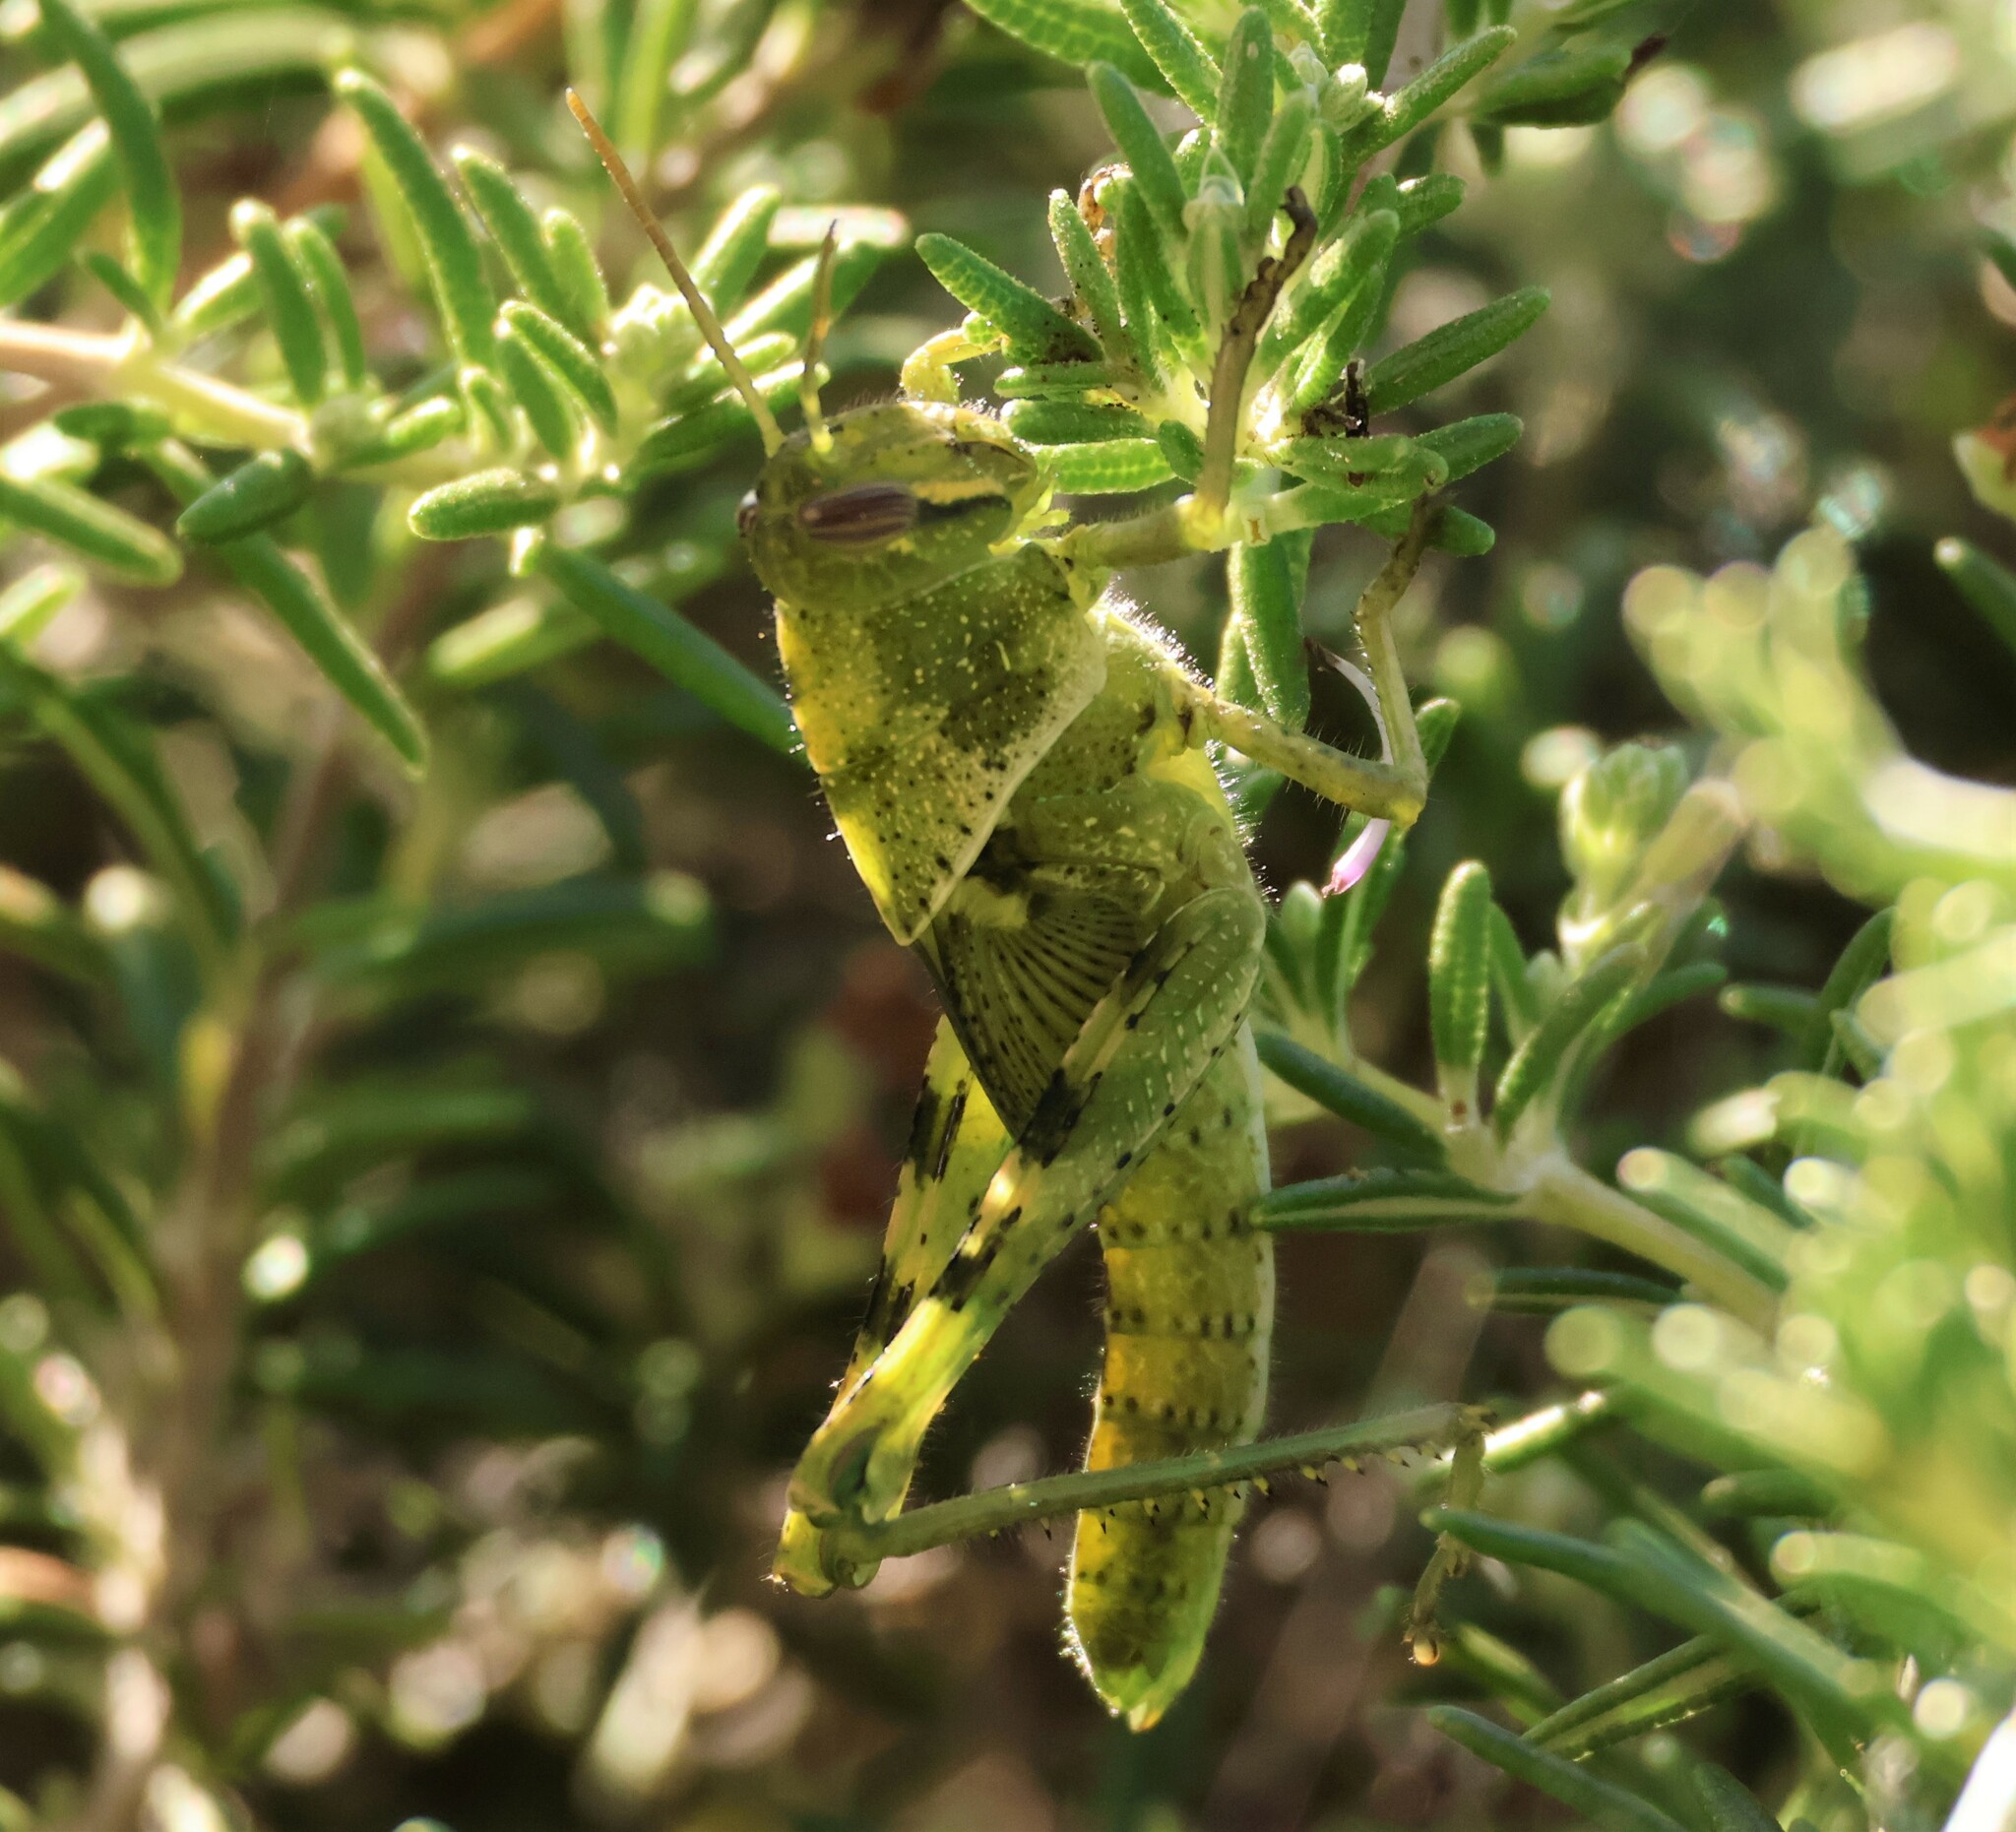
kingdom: Animalia
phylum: Arthropoda
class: Insecta
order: Orthoptera
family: Acrididae
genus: Schistocerca
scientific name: Schistocerca nitens
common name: Vagrant grasshopper
